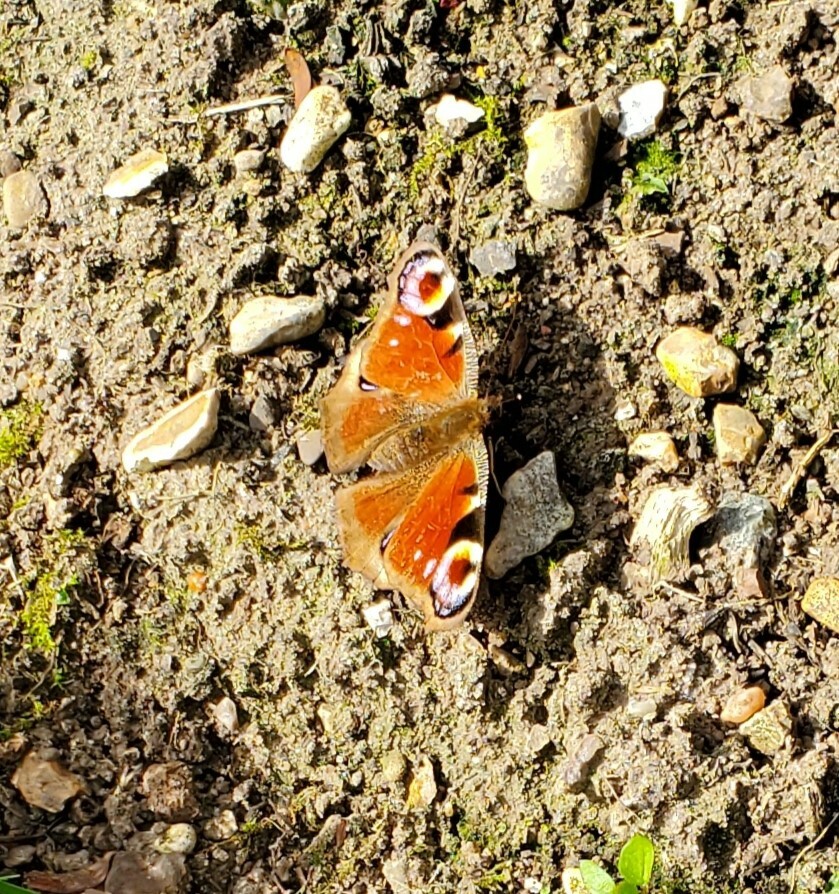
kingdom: Animalia
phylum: Arthropoda
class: Insecta
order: Lepidoptera
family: Nymphalidae
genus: Aglais
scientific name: Aglais io
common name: Peacock
